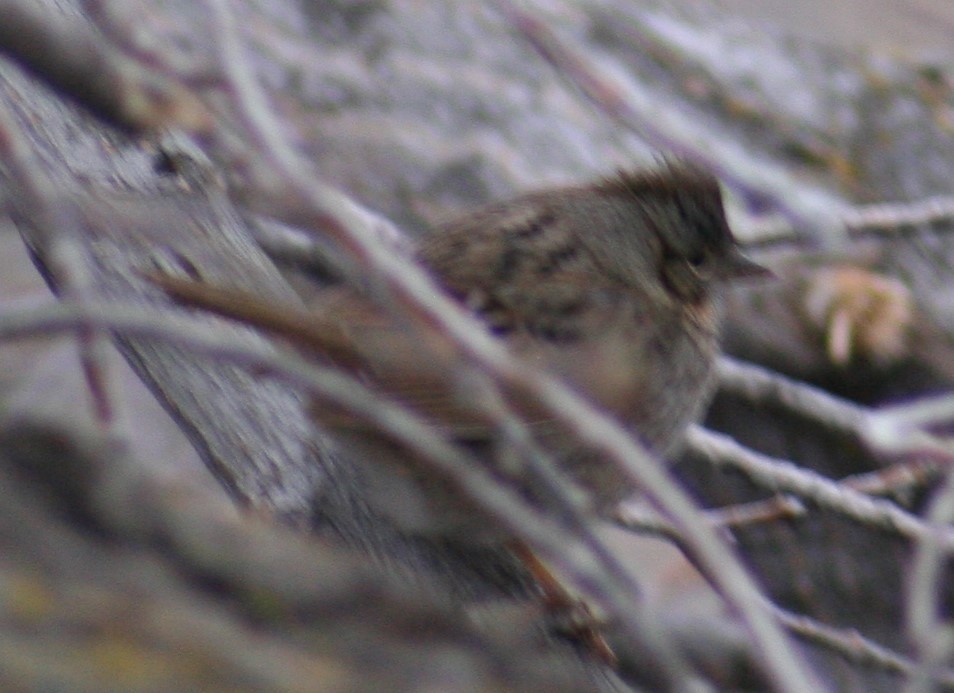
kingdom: Animalia
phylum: Chordata
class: Aves
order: Passeriformes
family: Passerellidae
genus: Melospiza
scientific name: Melospiza lincolnii
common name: Lincoln's sparrow
